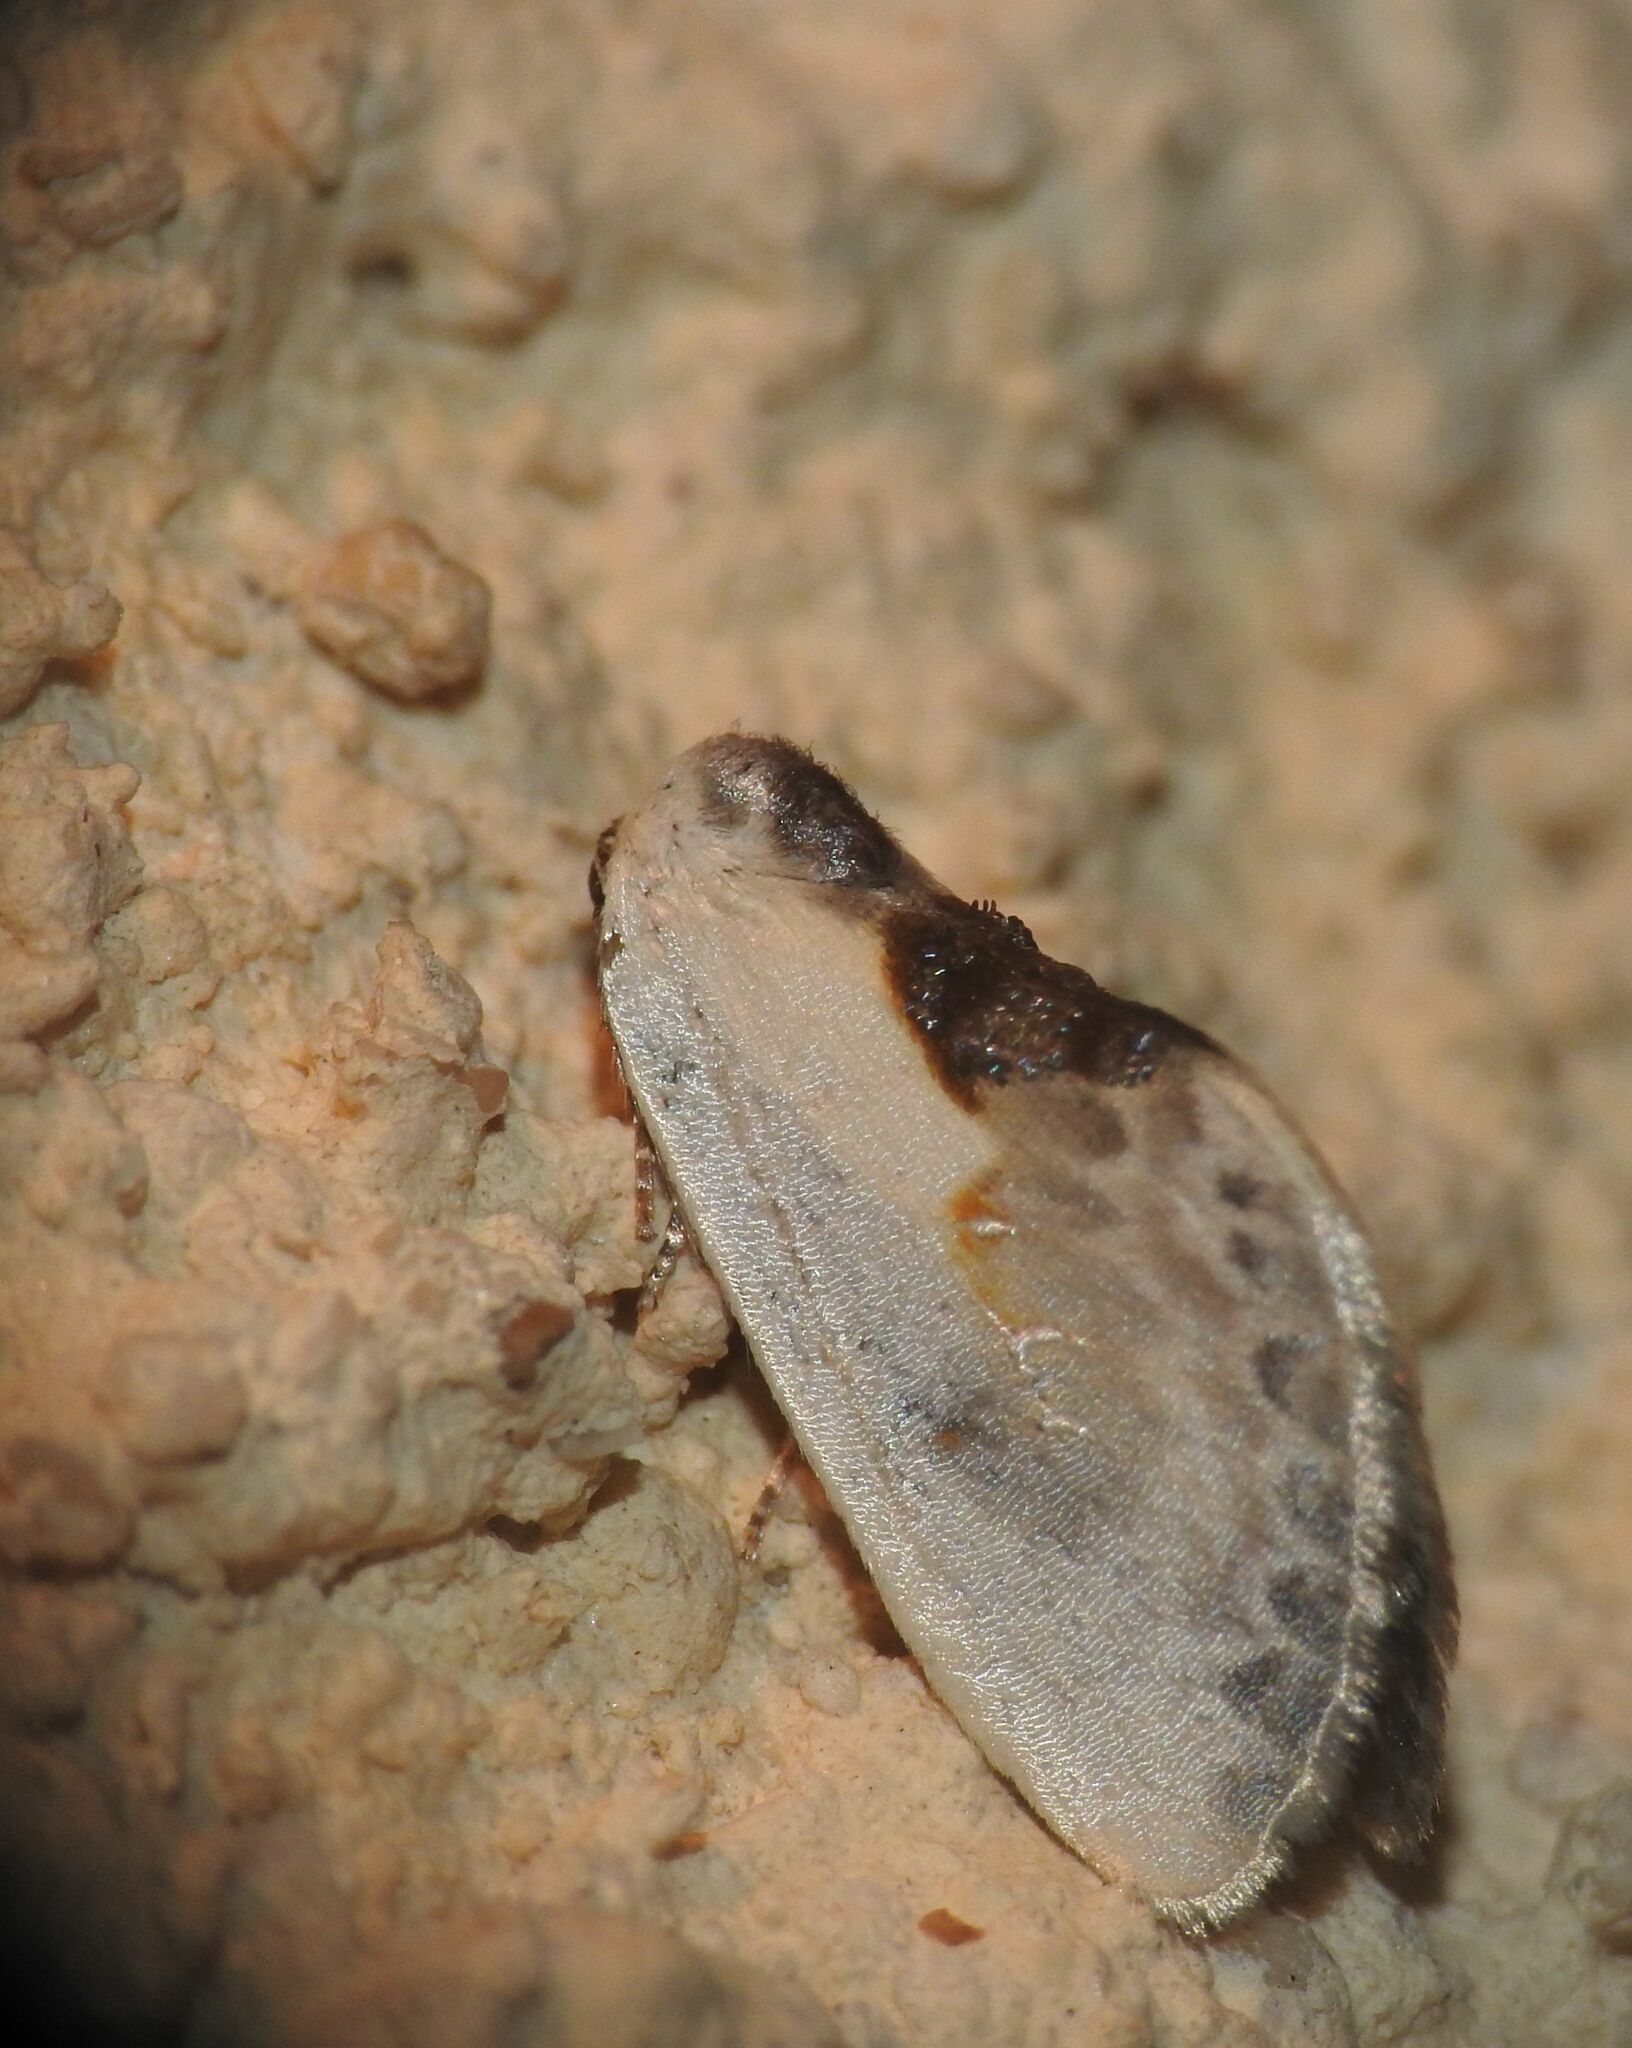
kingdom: Animalia
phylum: Arthropoda
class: Insecta
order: Lepidoptera
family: Drepanidae
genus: Cilix
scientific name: Cilix glaucata
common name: Chinese character
